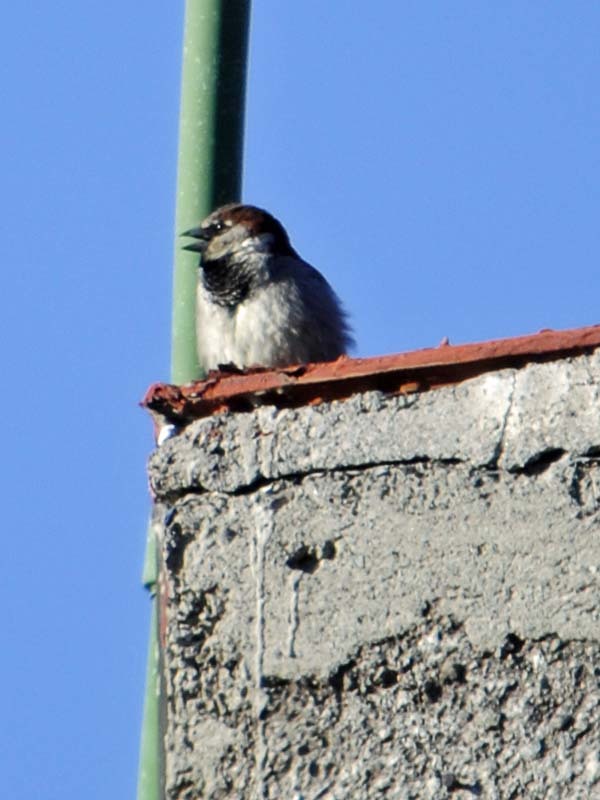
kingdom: Animalia
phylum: Chordata
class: Aves
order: Passeriformes
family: Passeridae
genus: Passer
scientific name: Passer domesticus
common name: House sparrow
